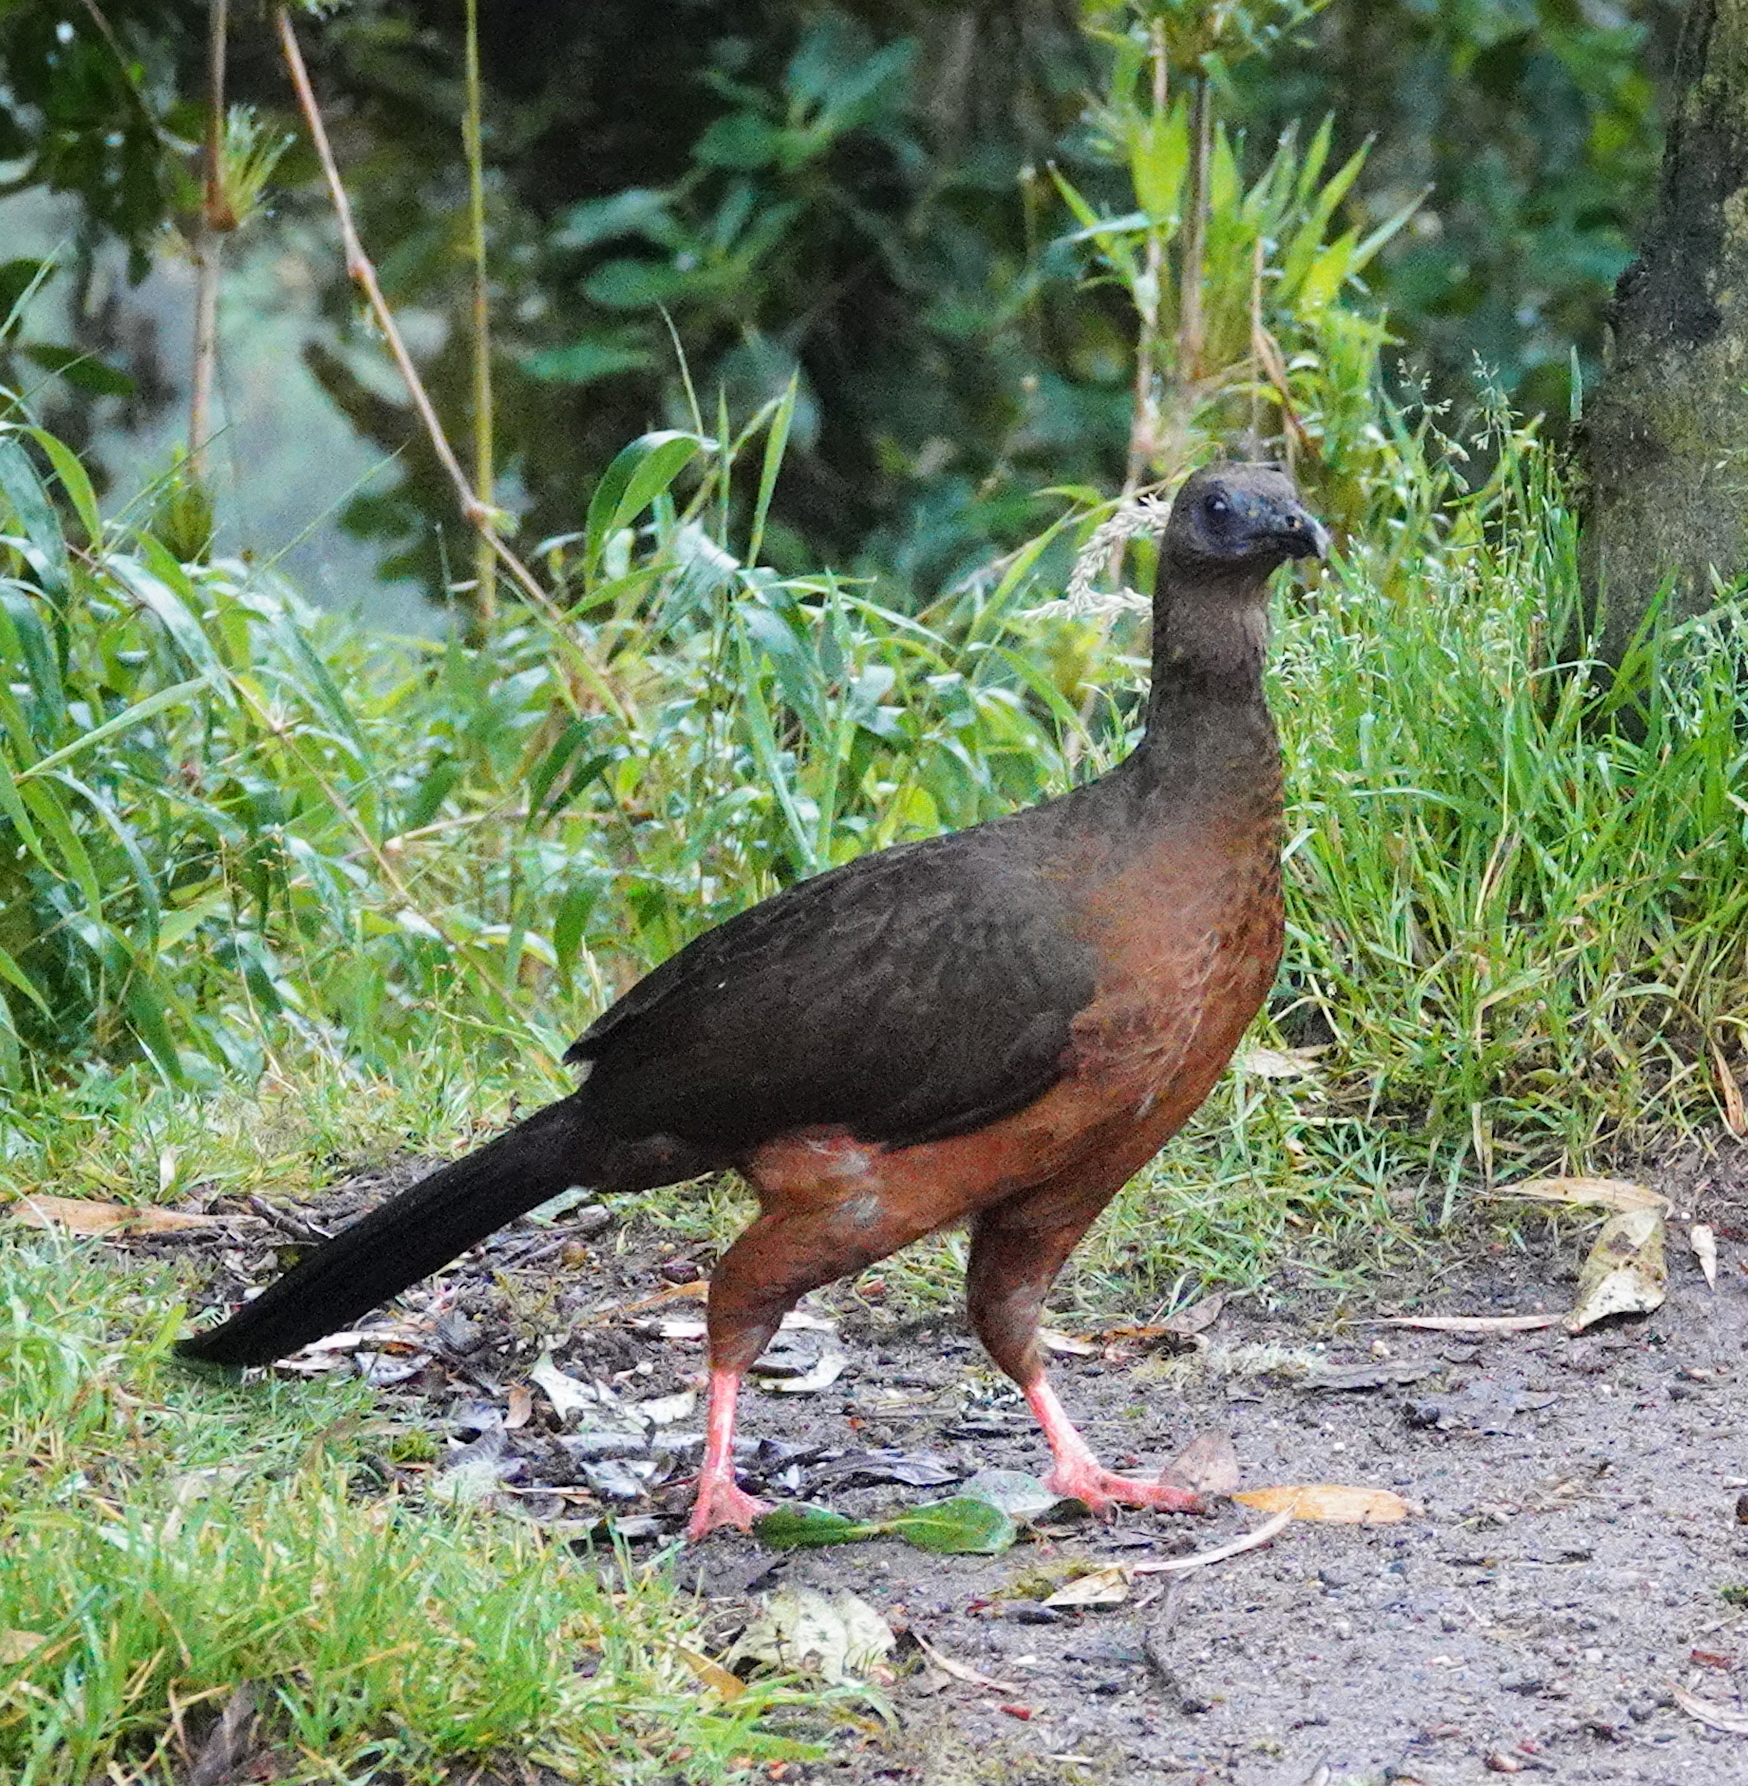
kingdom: Animalia
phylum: Chordata
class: Aves
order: Galliformes
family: Cracidae
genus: Chamaepetes
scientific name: Chamaepetes goudotii
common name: Sickle-winged guan
